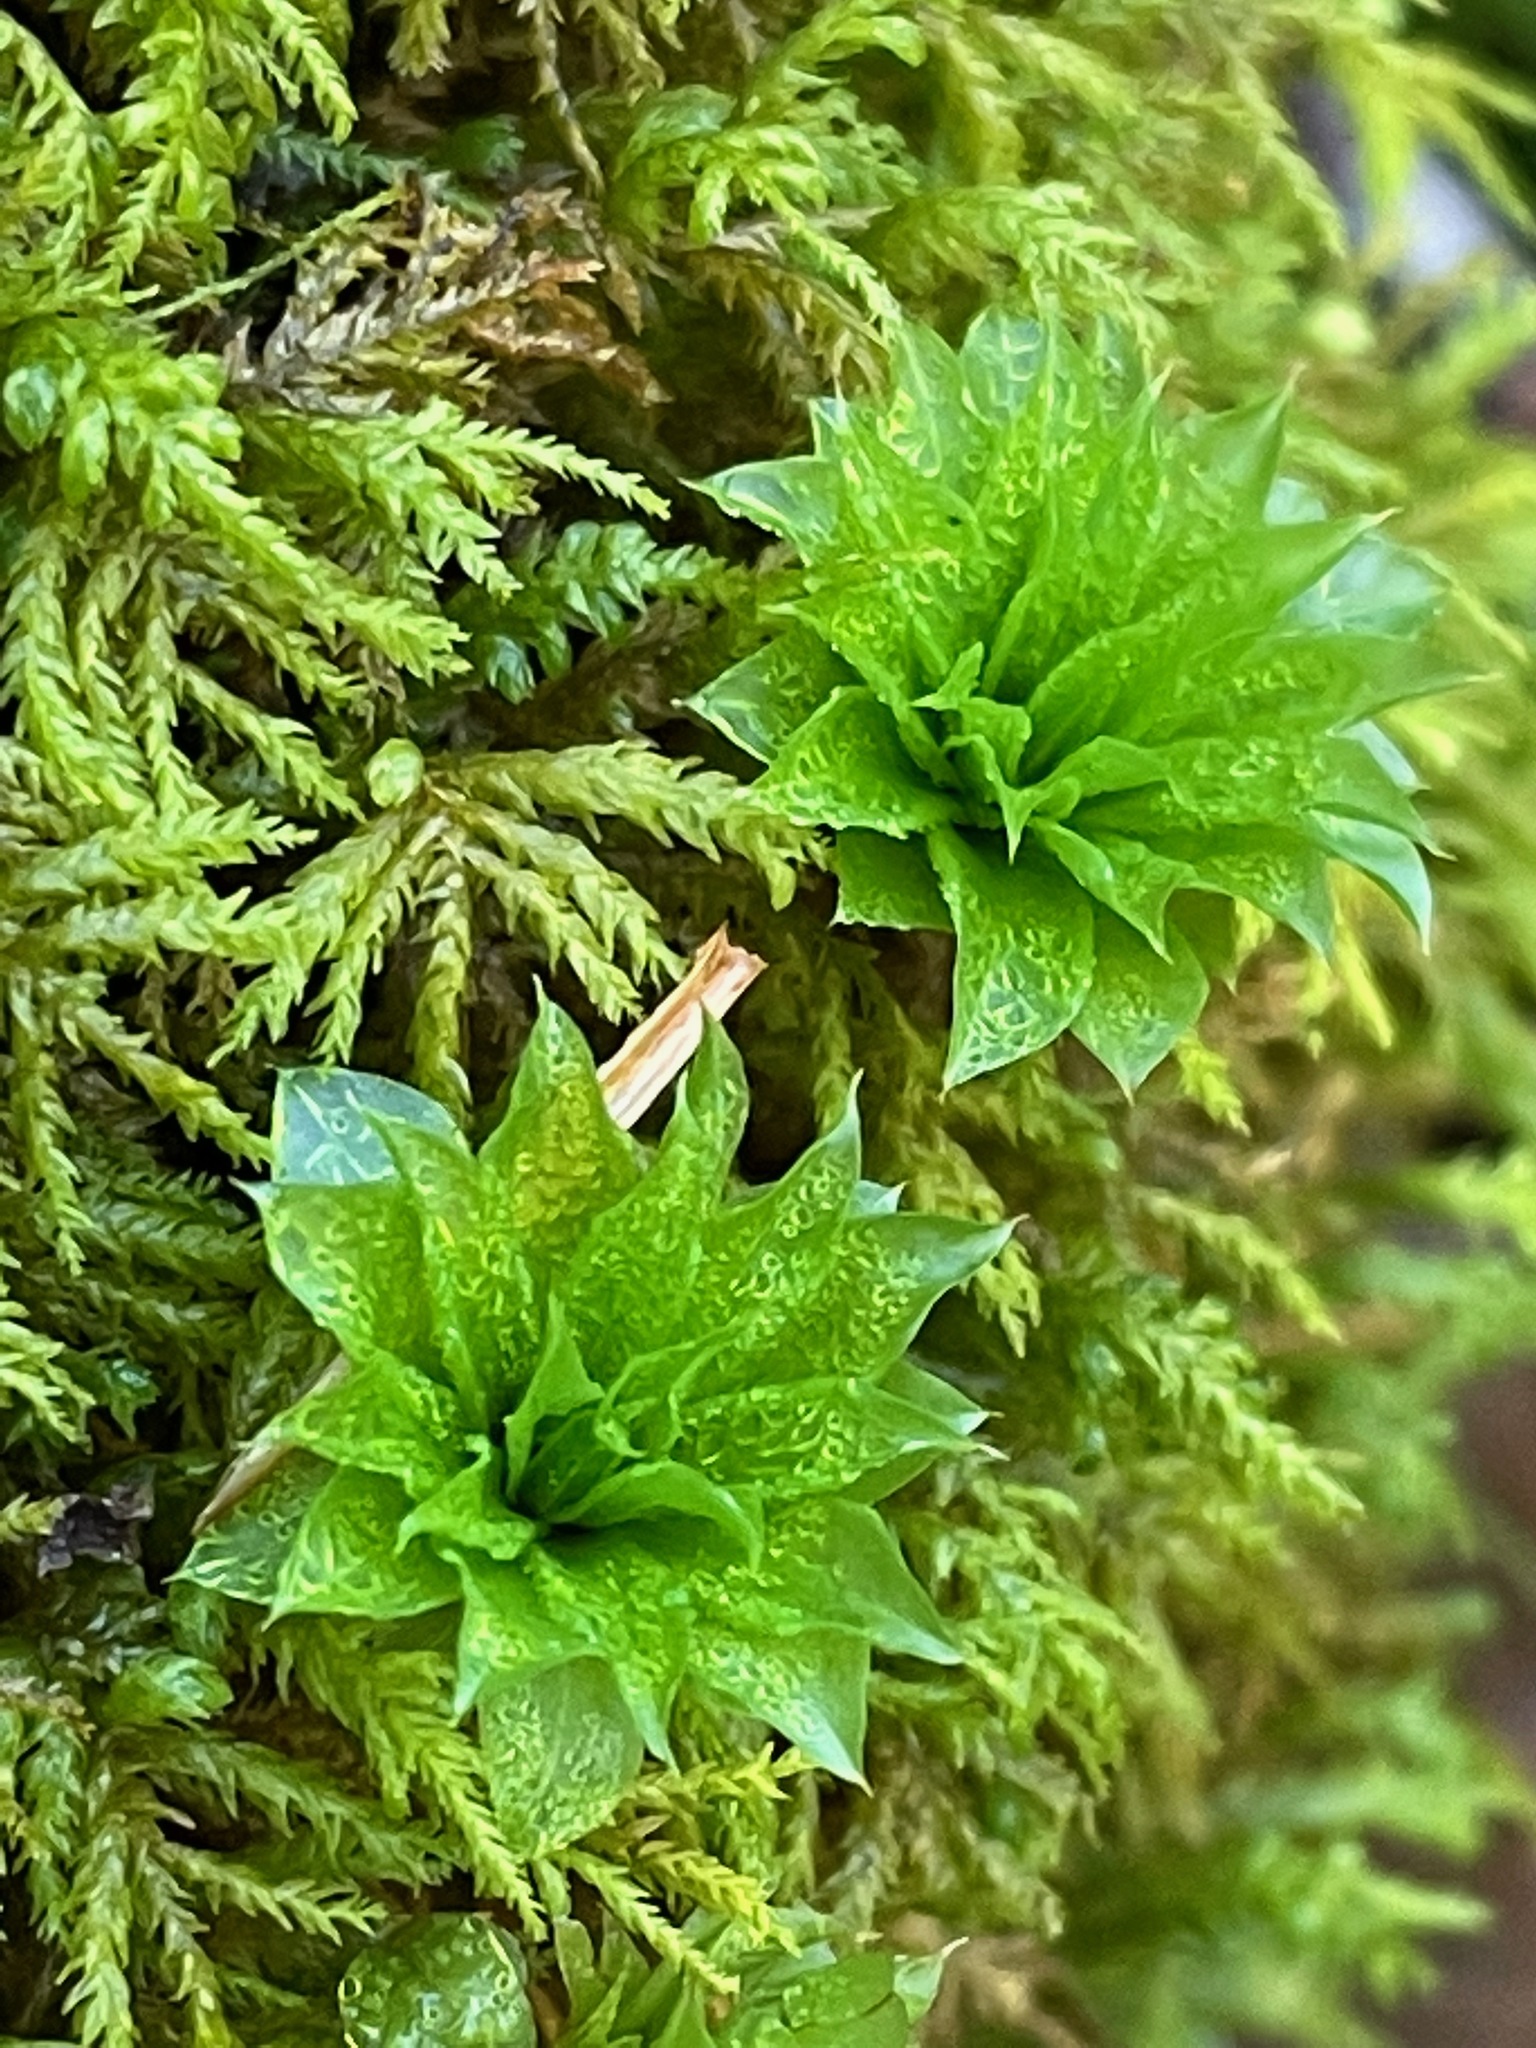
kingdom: Plantae
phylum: Bryophyta
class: Bryopsida
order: Bryales
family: Bryaceae
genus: Rhodobryum
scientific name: Rhodobryum ontariense
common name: Ontario rhodobryum moss
